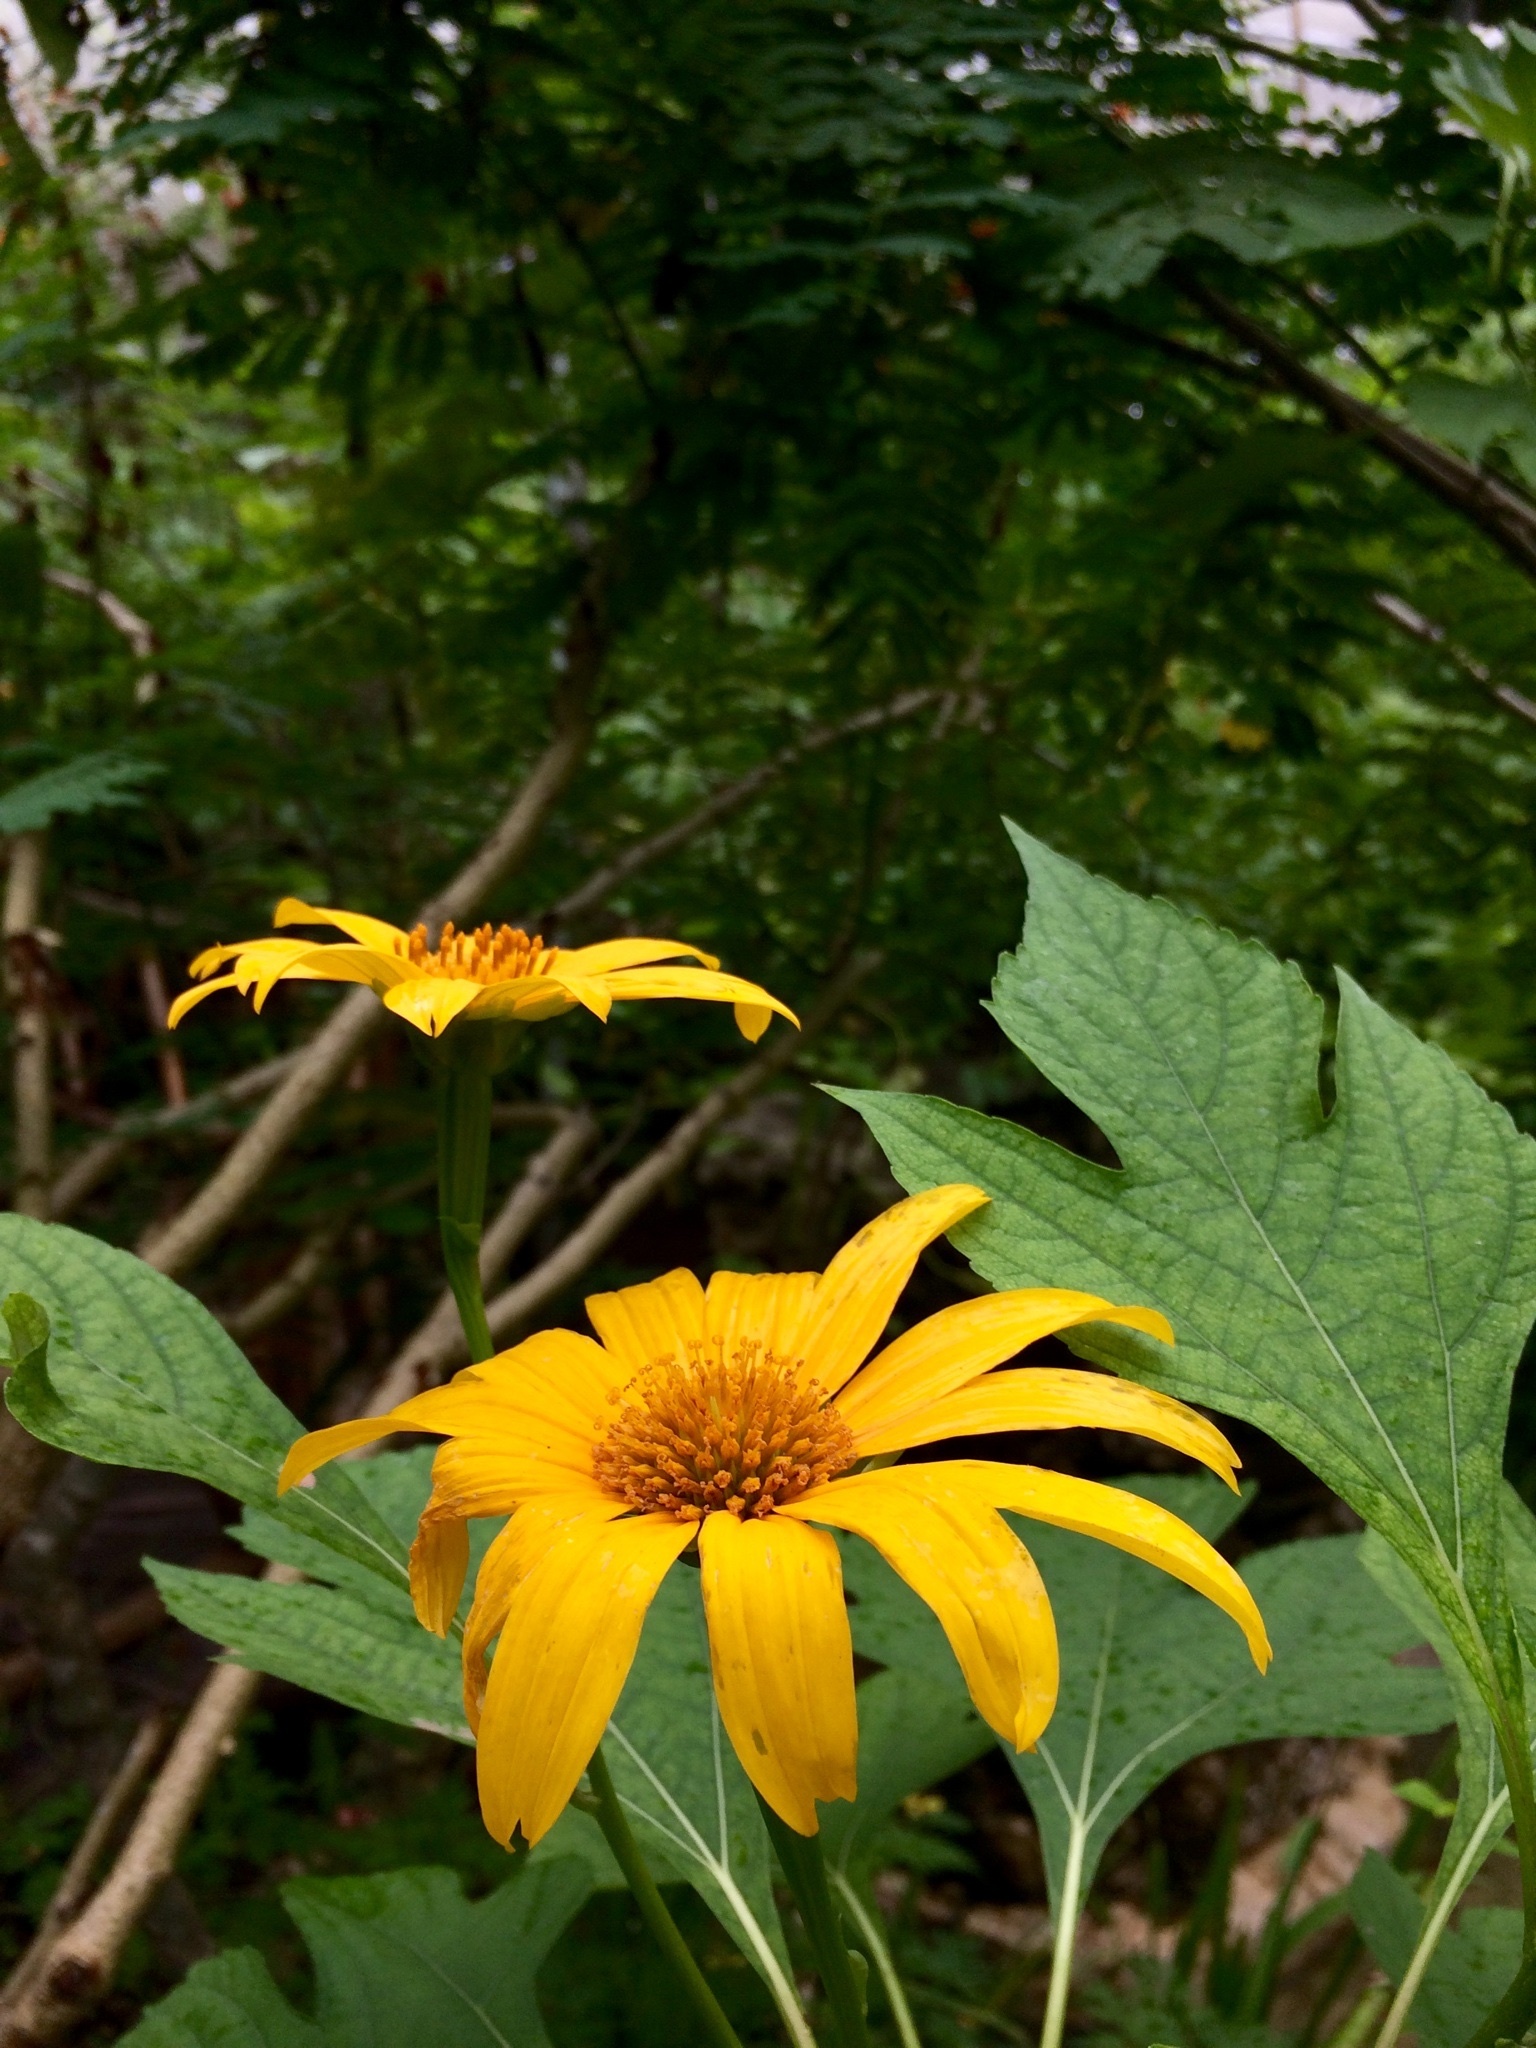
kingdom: Plantae
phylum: Tracheophyta
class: Magnoliopsida
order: Asterales
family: Asteraceae
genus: Tithonia
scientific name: Tithonia diversifolia
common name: Tree marigold
